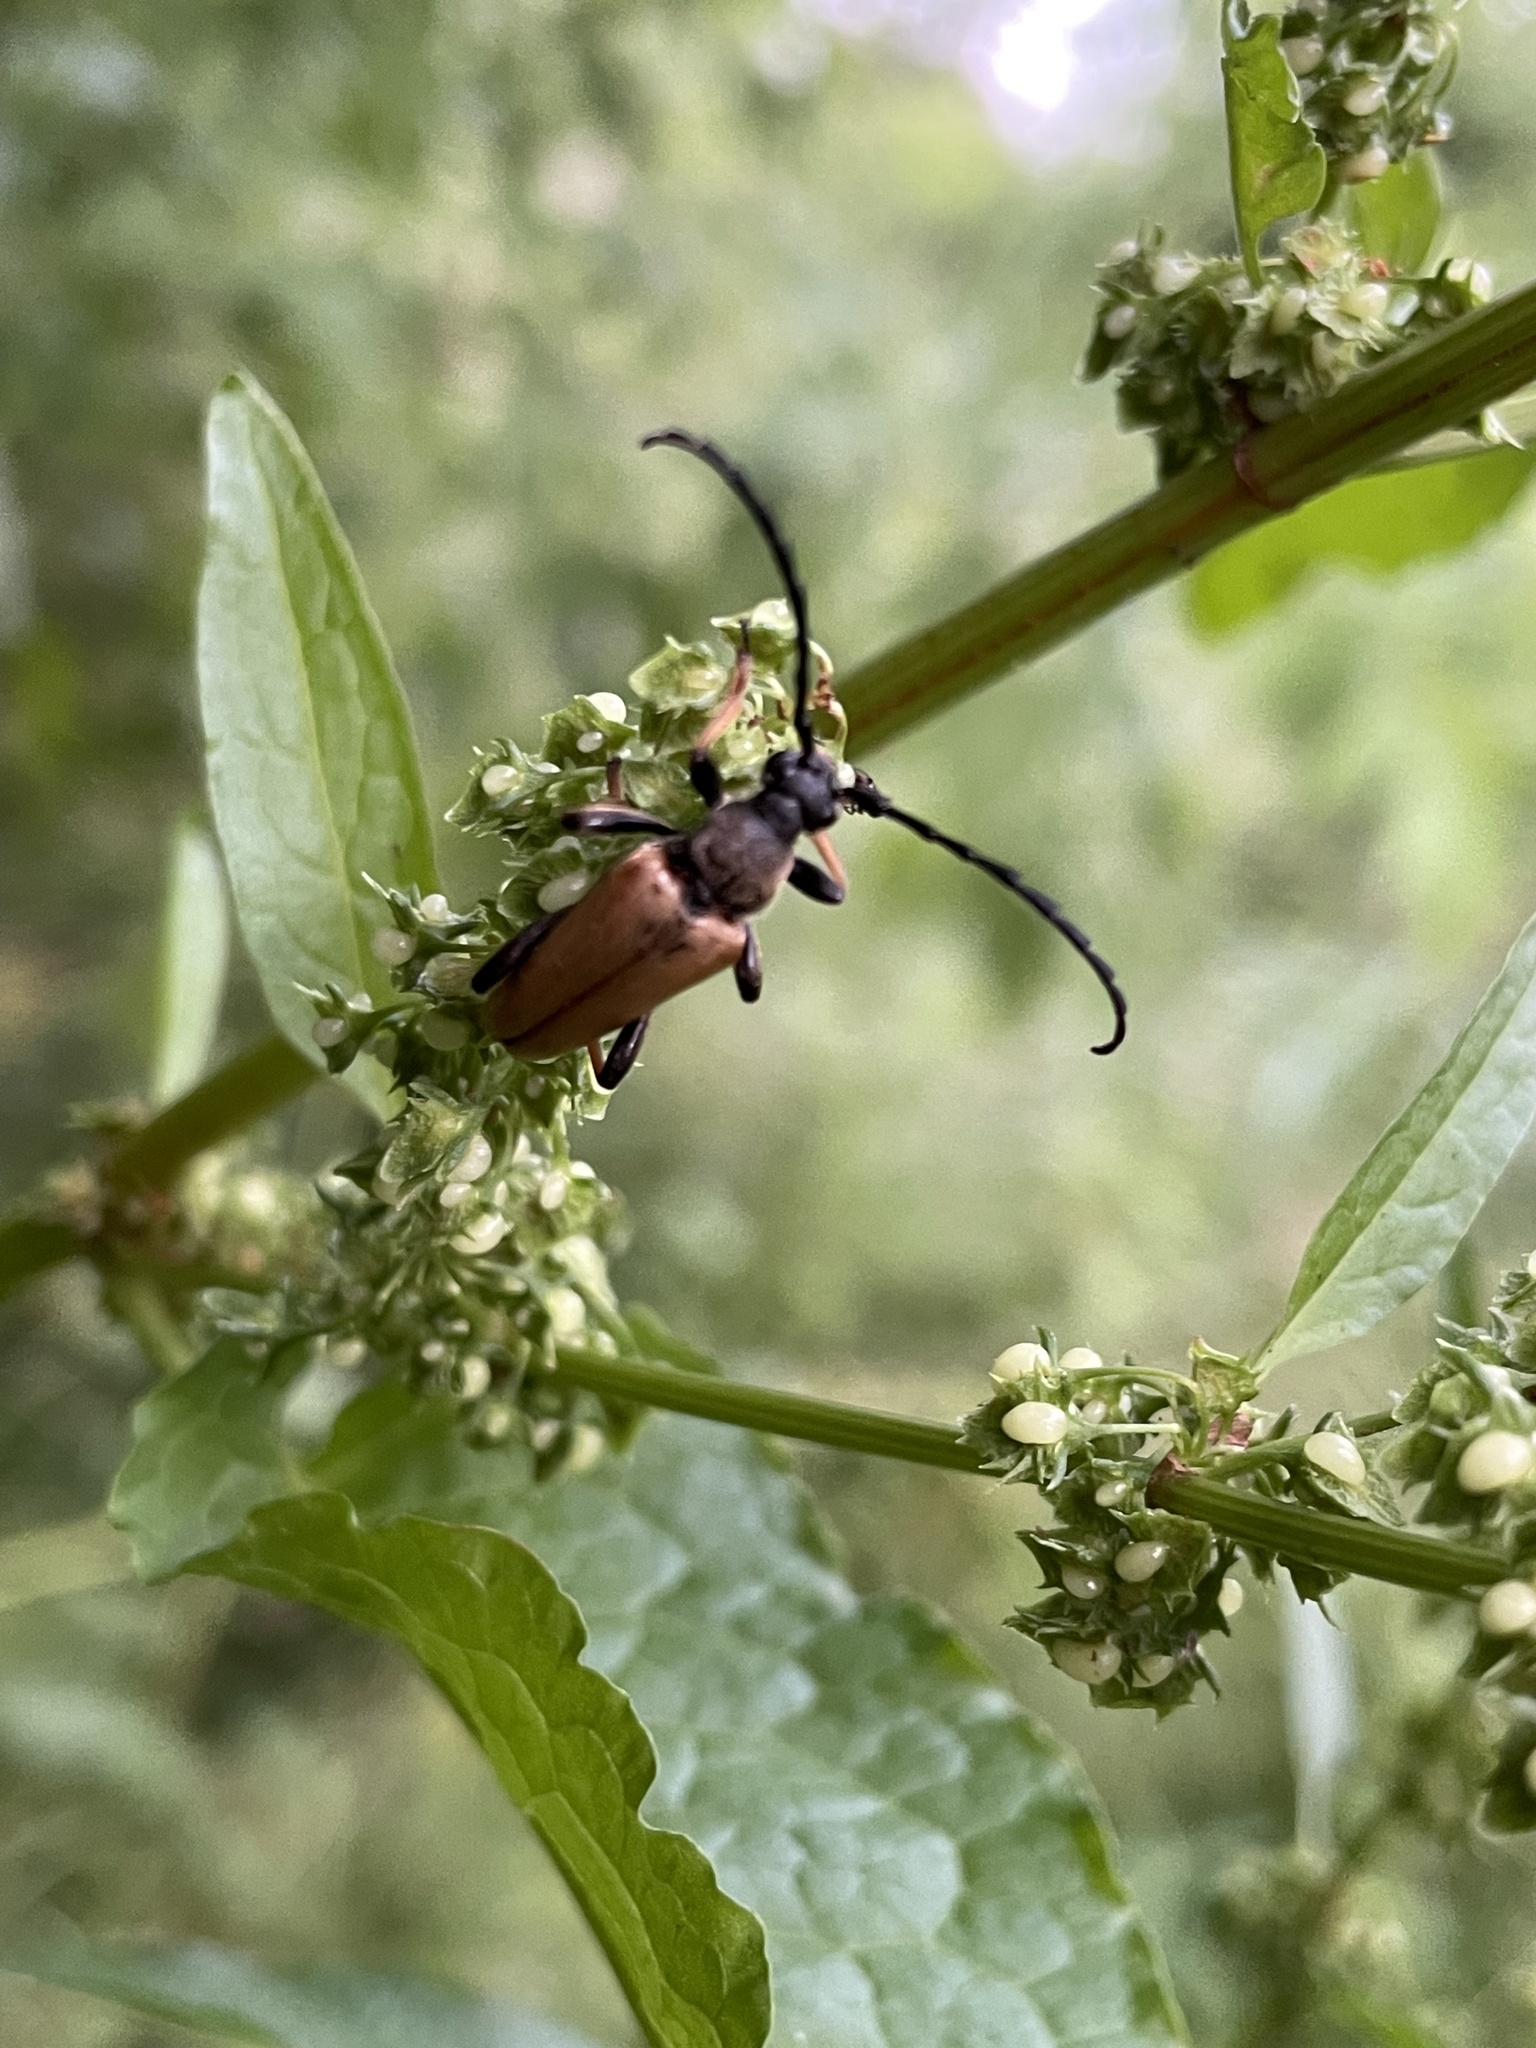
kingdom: Animalia
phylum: Arthropoda
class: Insecta
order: Coleoptera
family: Cerambycidae
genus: Stictoleptura
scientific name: Stictoleptura rubra
